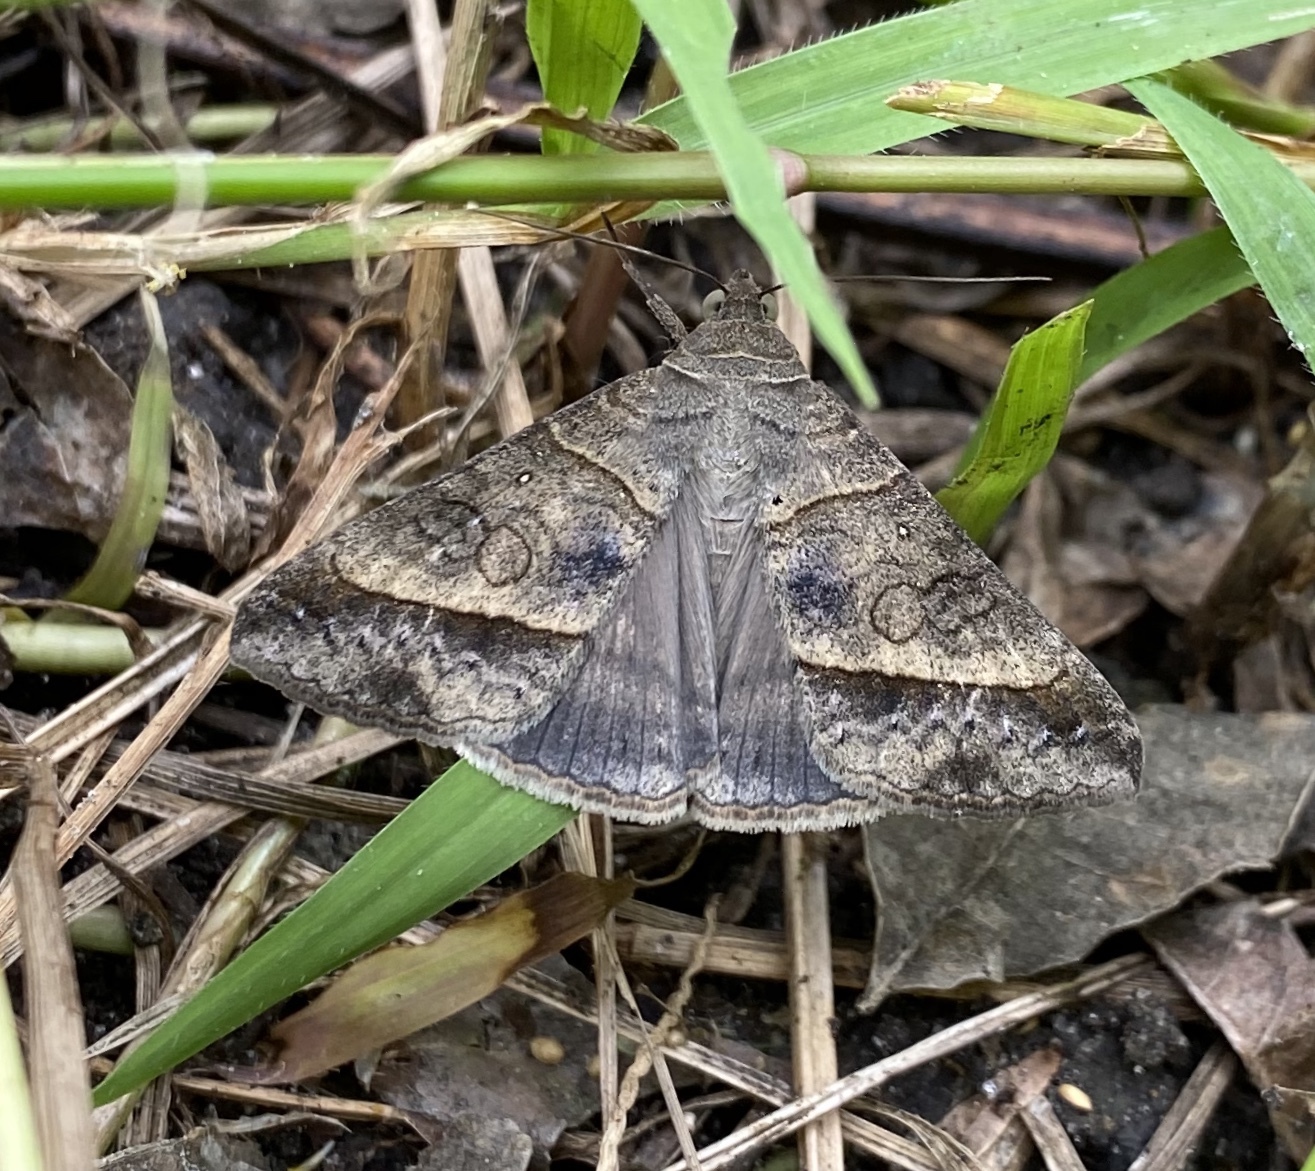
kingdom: Animalia
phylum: Arthropoda
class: Insecta
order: Lepidoptera
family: Erebidae
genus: Mocis
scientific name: Mocis latipes
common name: Striped grass looper
